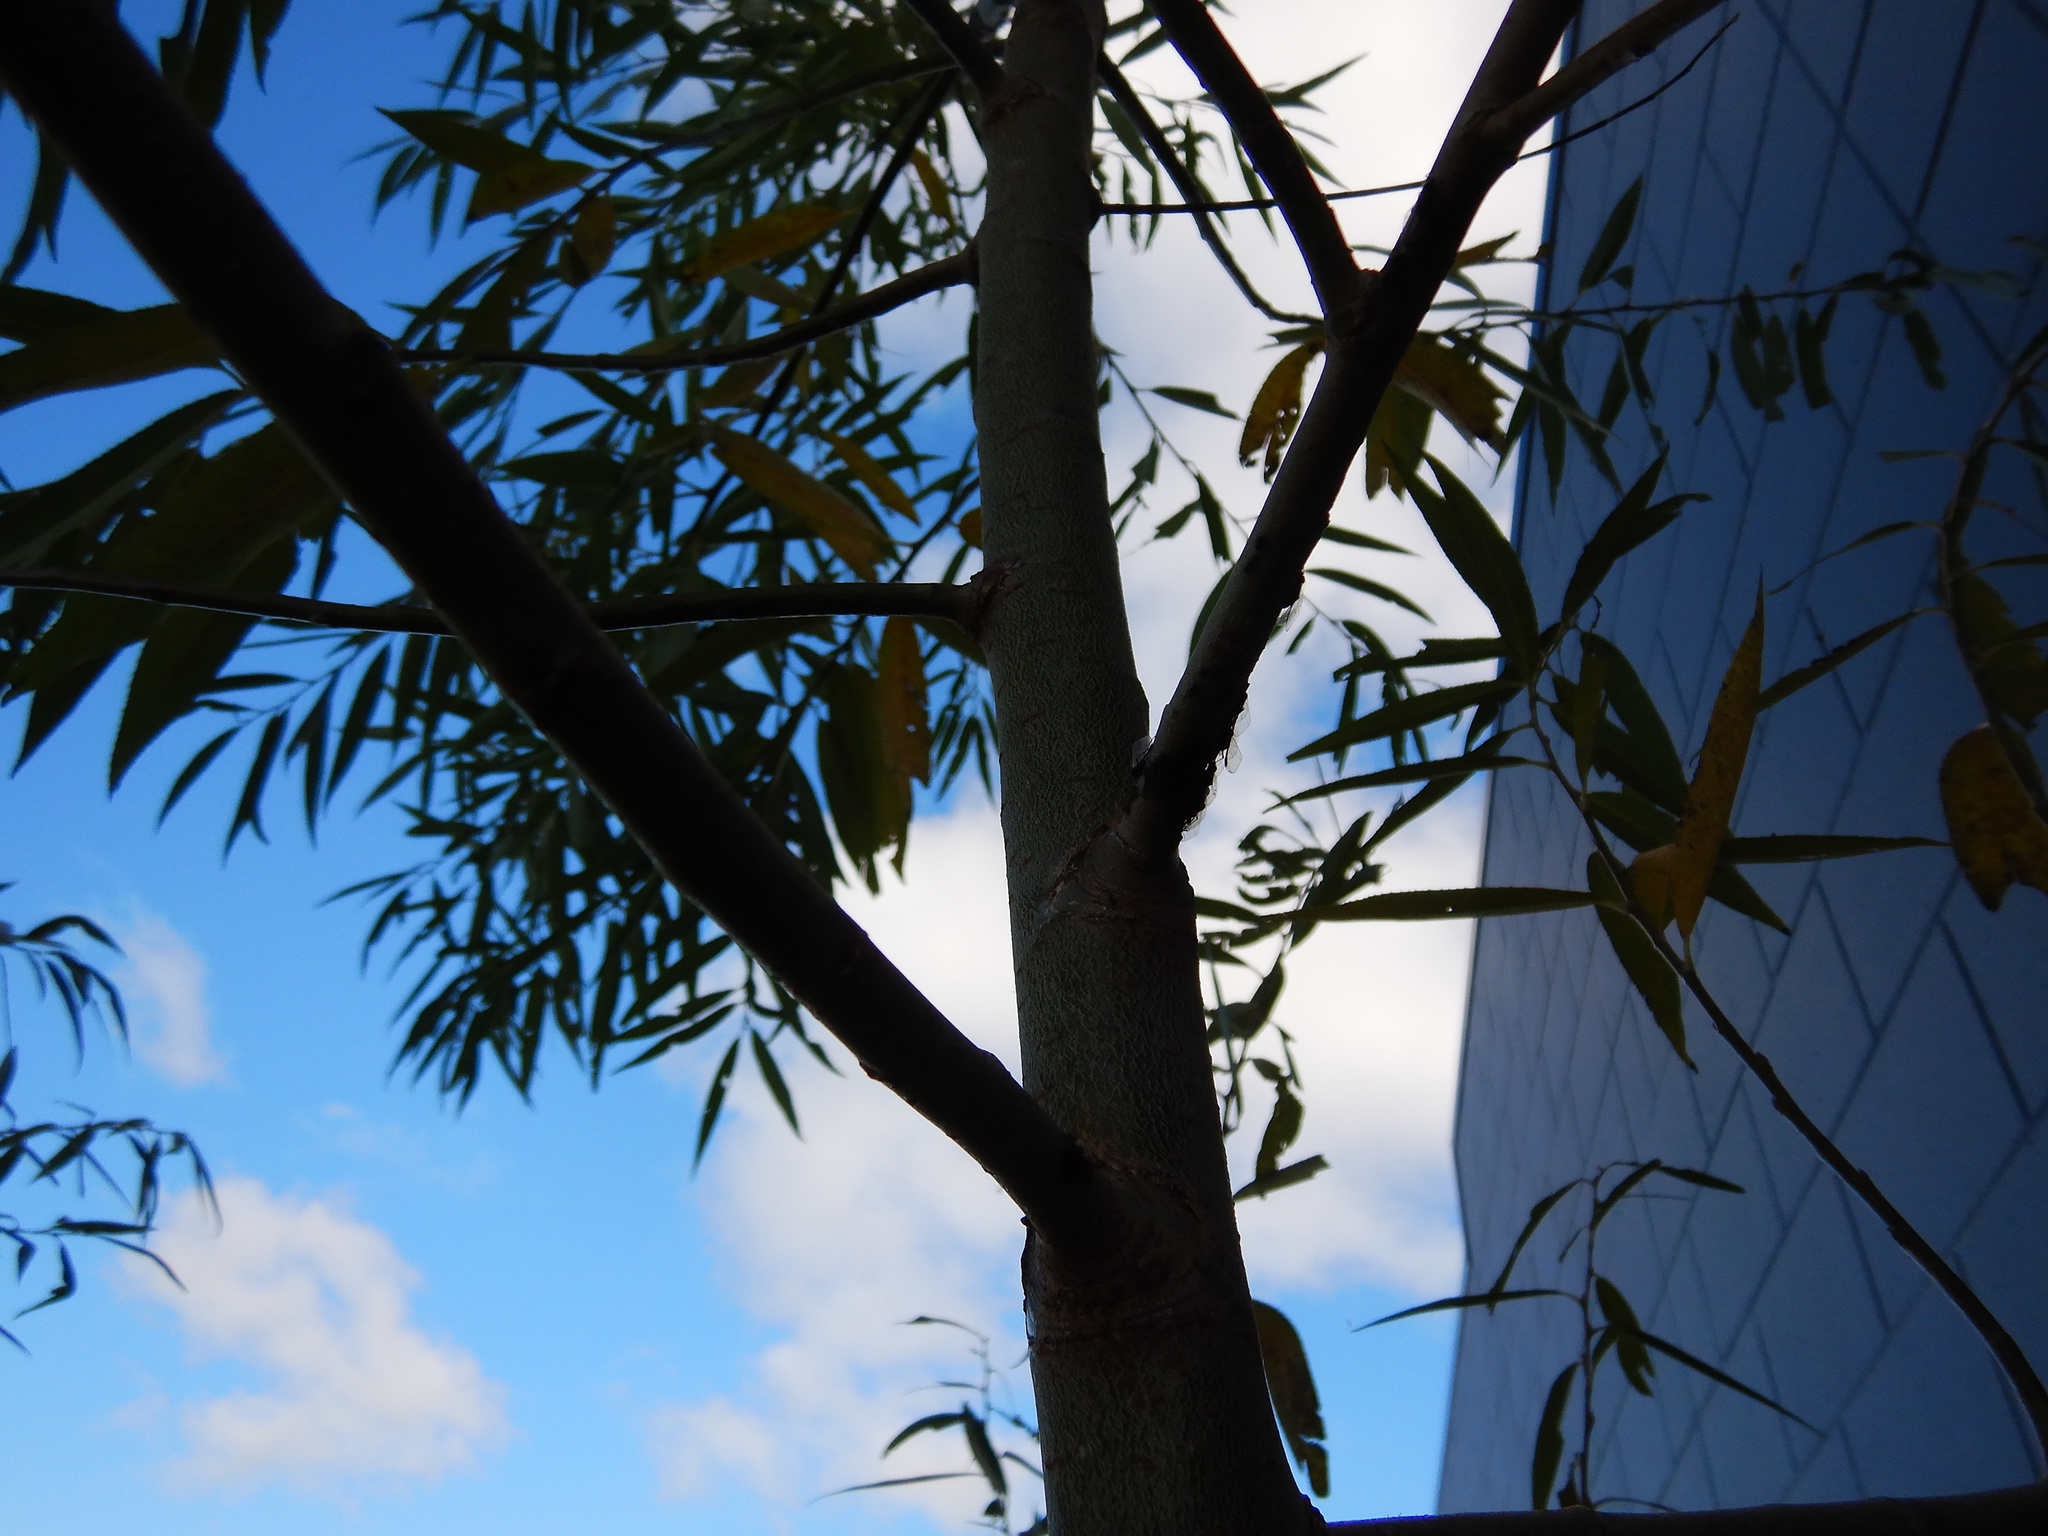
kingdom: Animalia
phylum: Arthropoda
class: Insecta
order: Hemiptera
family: Aphididae
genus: Tuberolachnus
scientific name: Tuberolachnus salignus
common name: Giant willow aphid
